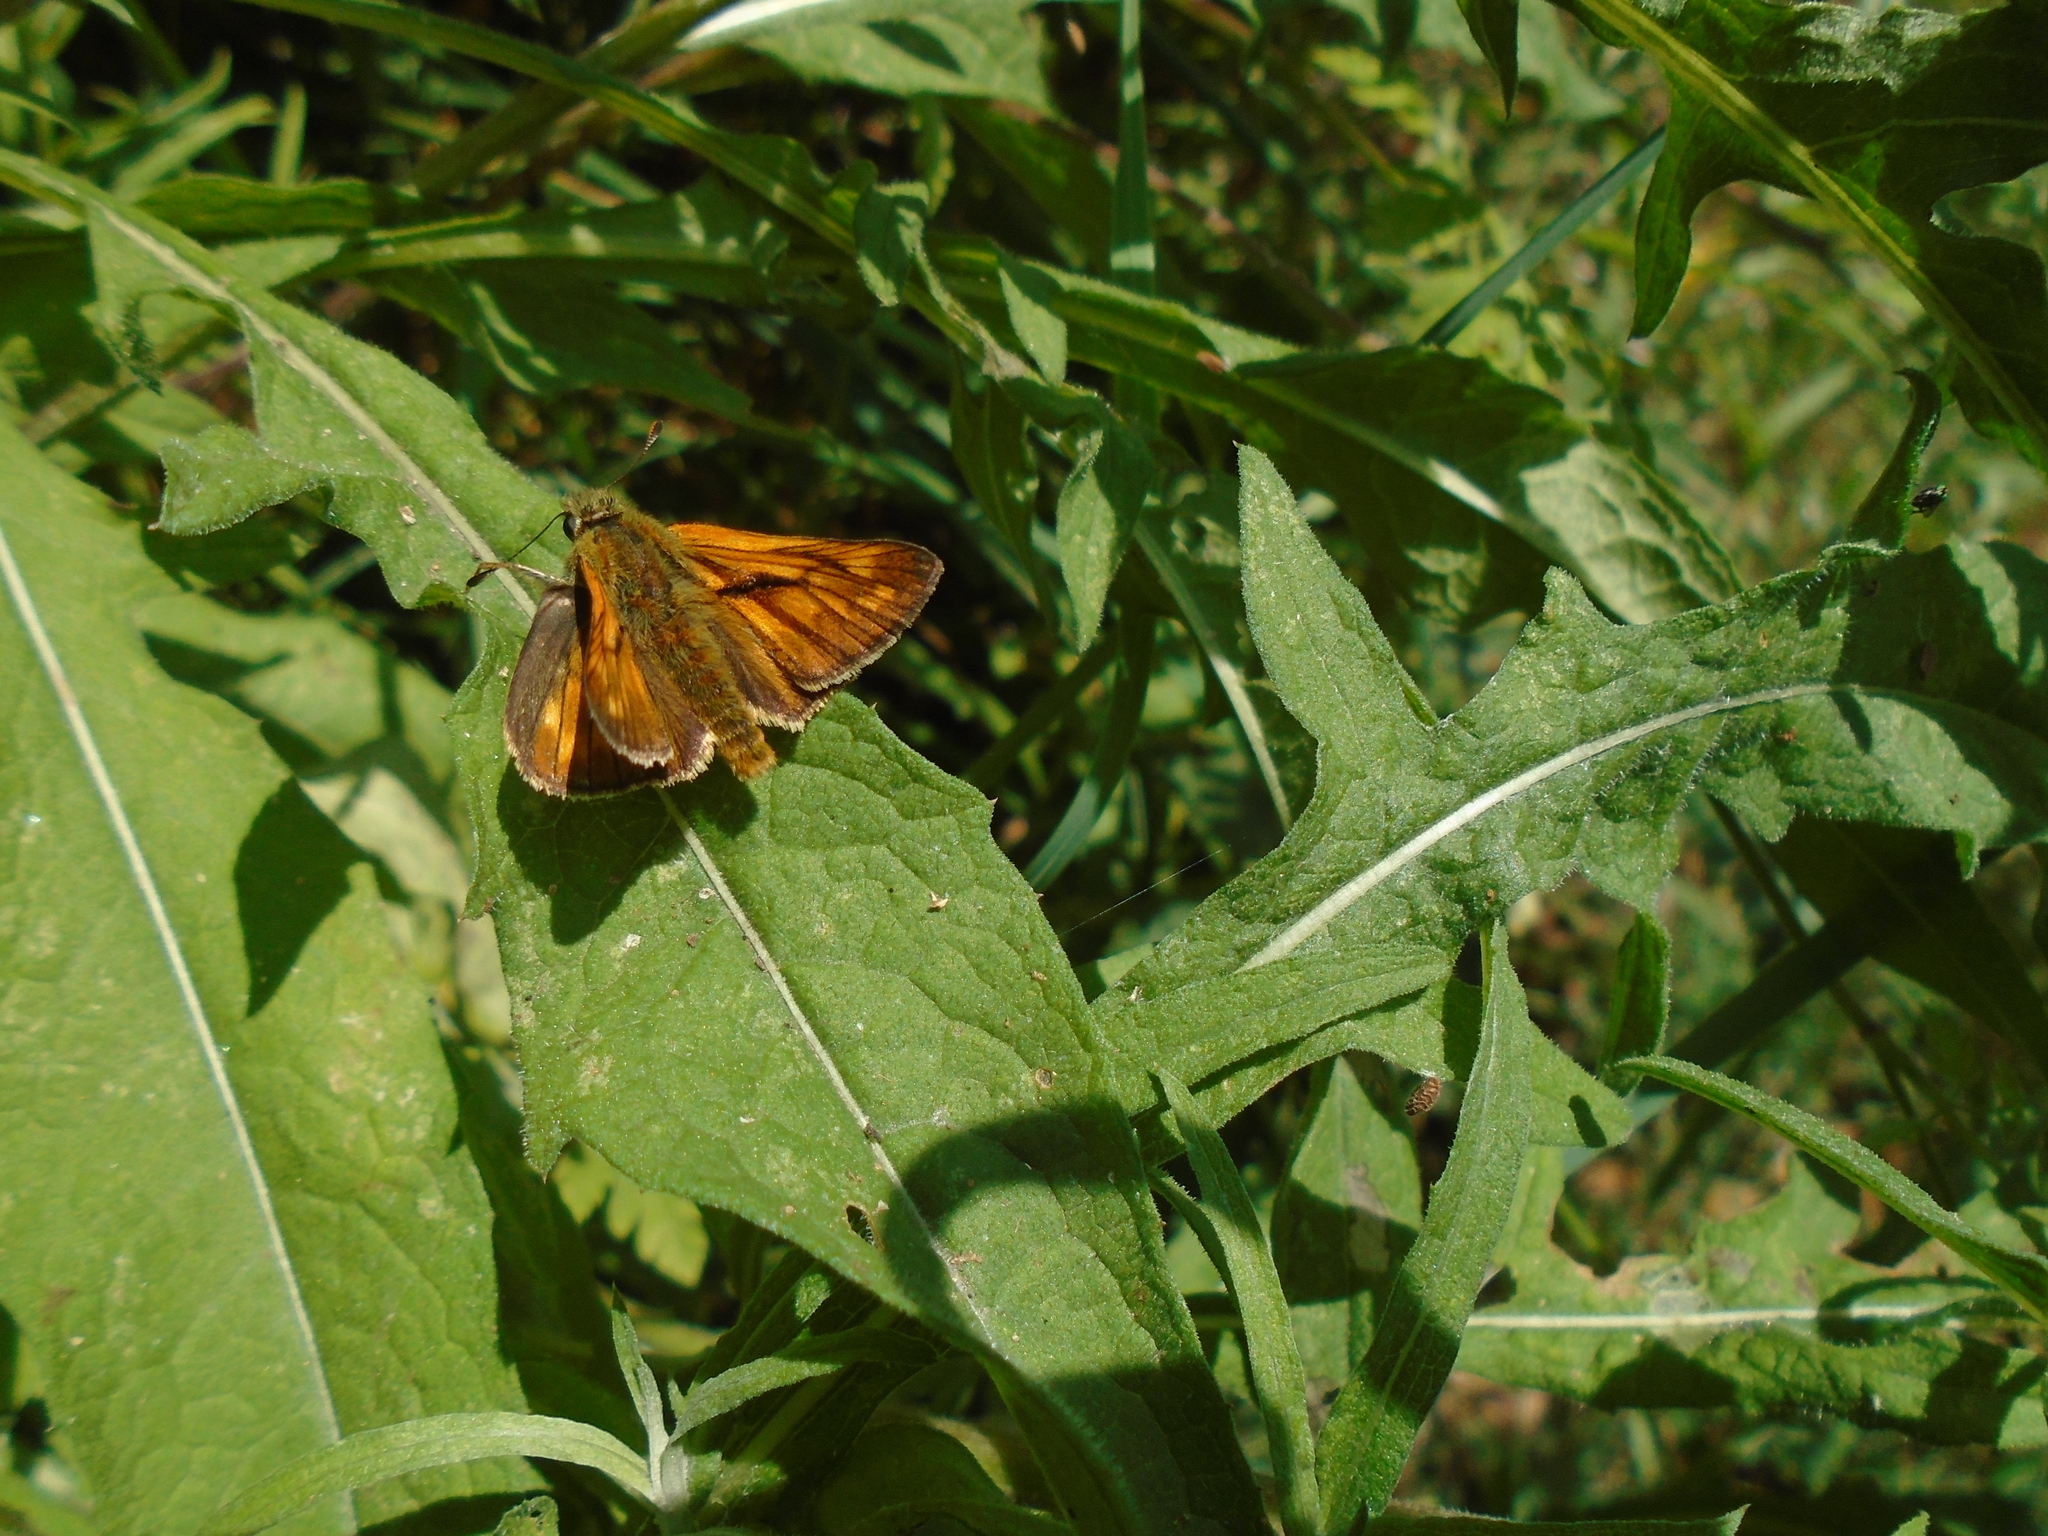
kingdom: Animalia
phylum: Arthropoda
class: Insecta
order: Lepidoptera
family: Hesperiidae
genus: Ochlodes
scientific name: Ochlodes venata
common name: Large skipper
